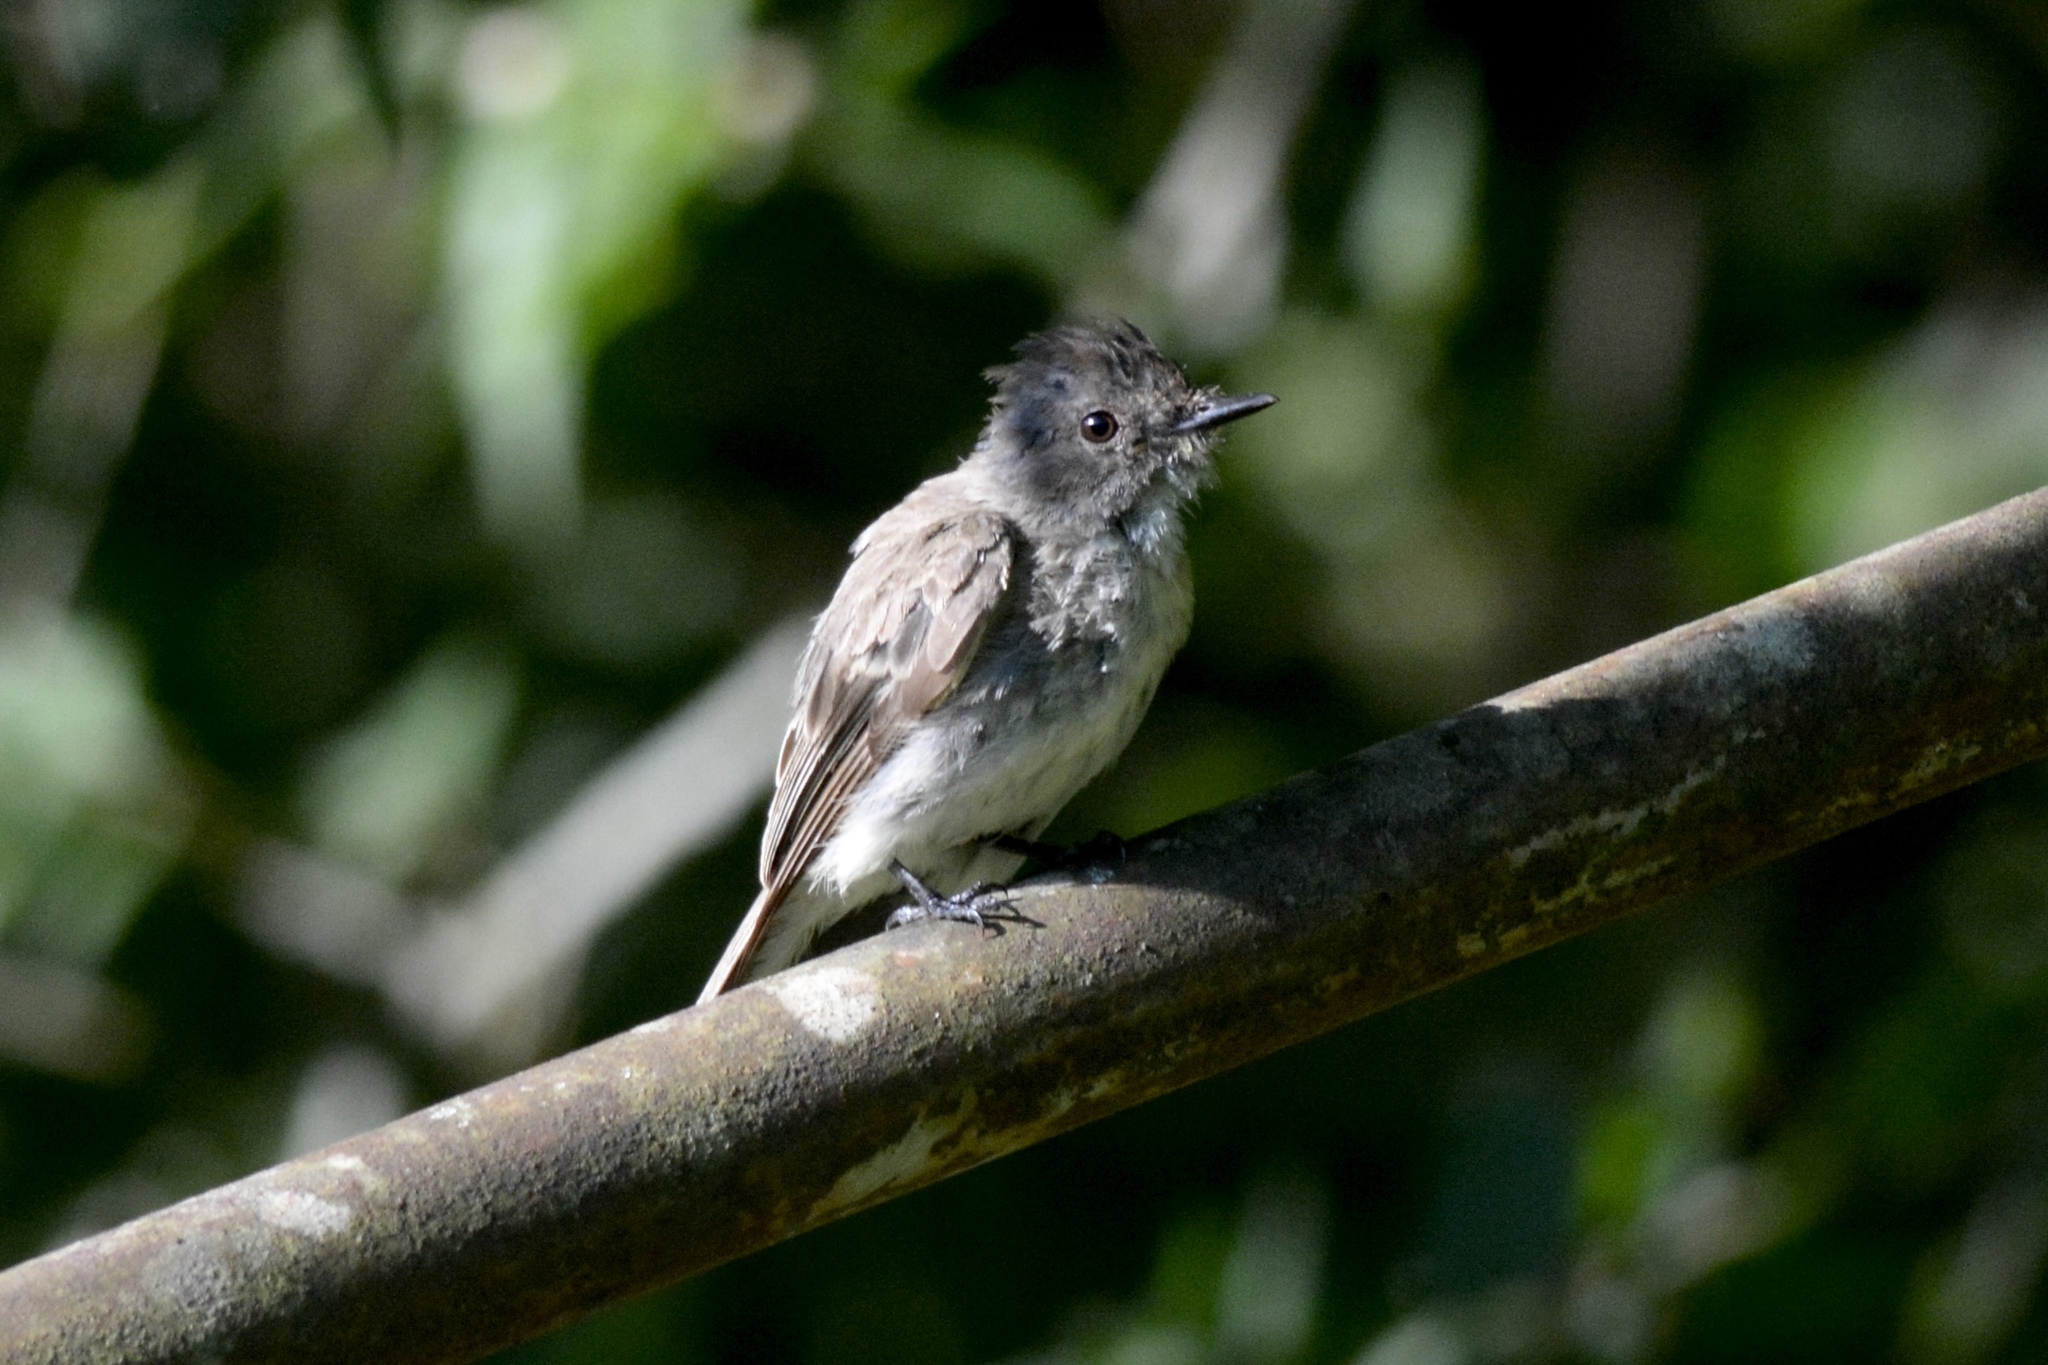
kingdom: Animalia
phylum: Chordata
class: Aves
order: Passeriformes
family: Tyrannidae
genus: Sayornis
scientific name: Sayornis phoebe
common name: Eastern phoebe
